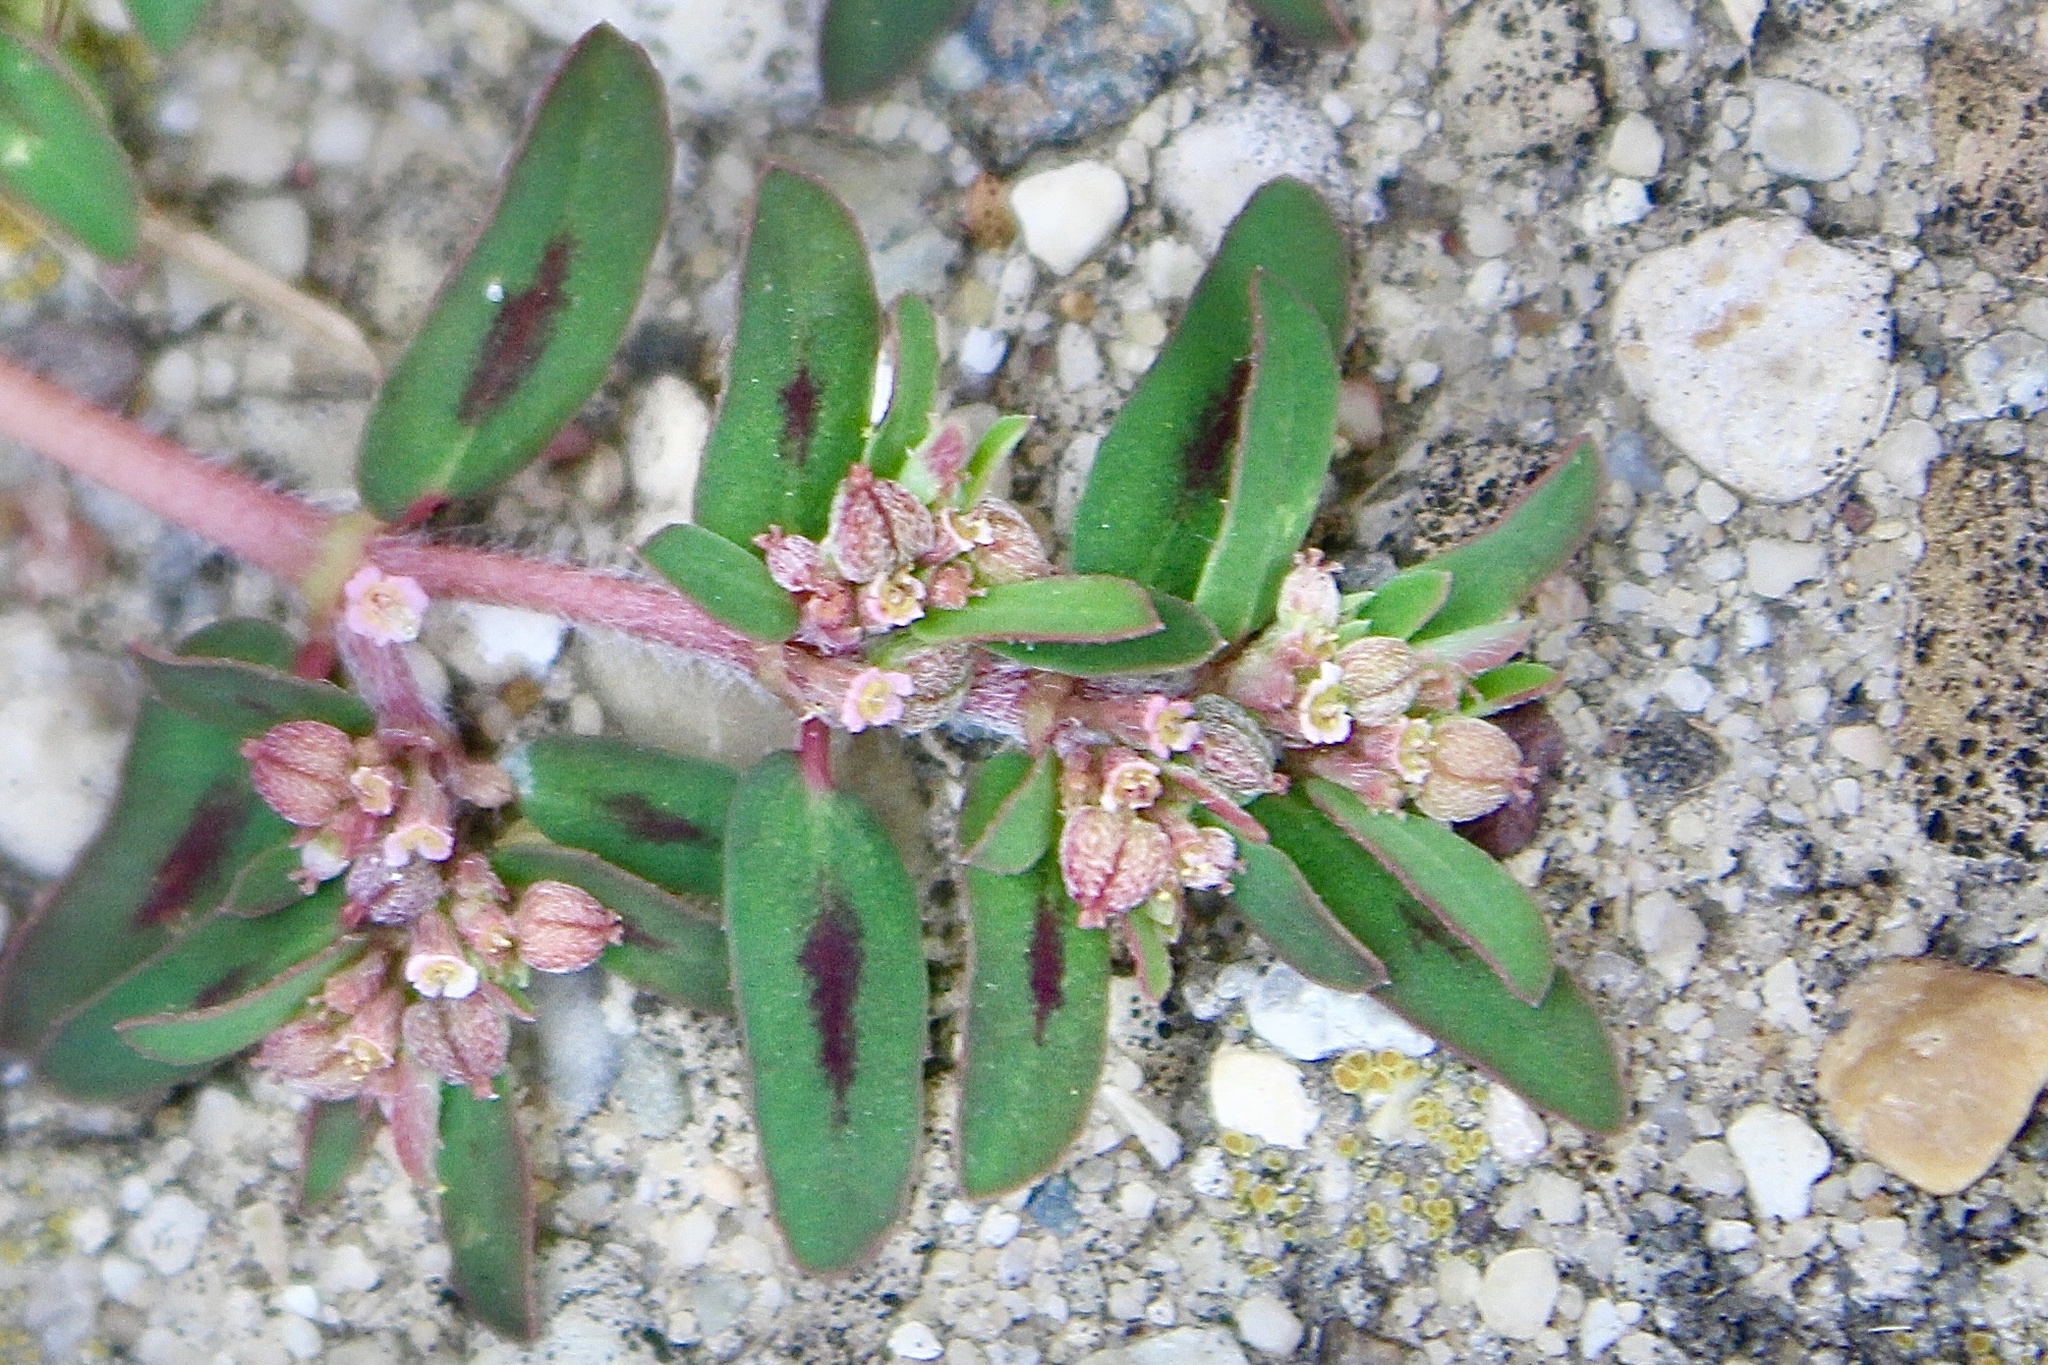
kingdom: Plantae
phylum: Tracheophyta
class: Magnoliopsida
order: Malpighiales
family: Euphorbiaceae
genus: Euphorbia
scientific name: Euphorbia maculata
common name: Spotted spurge
